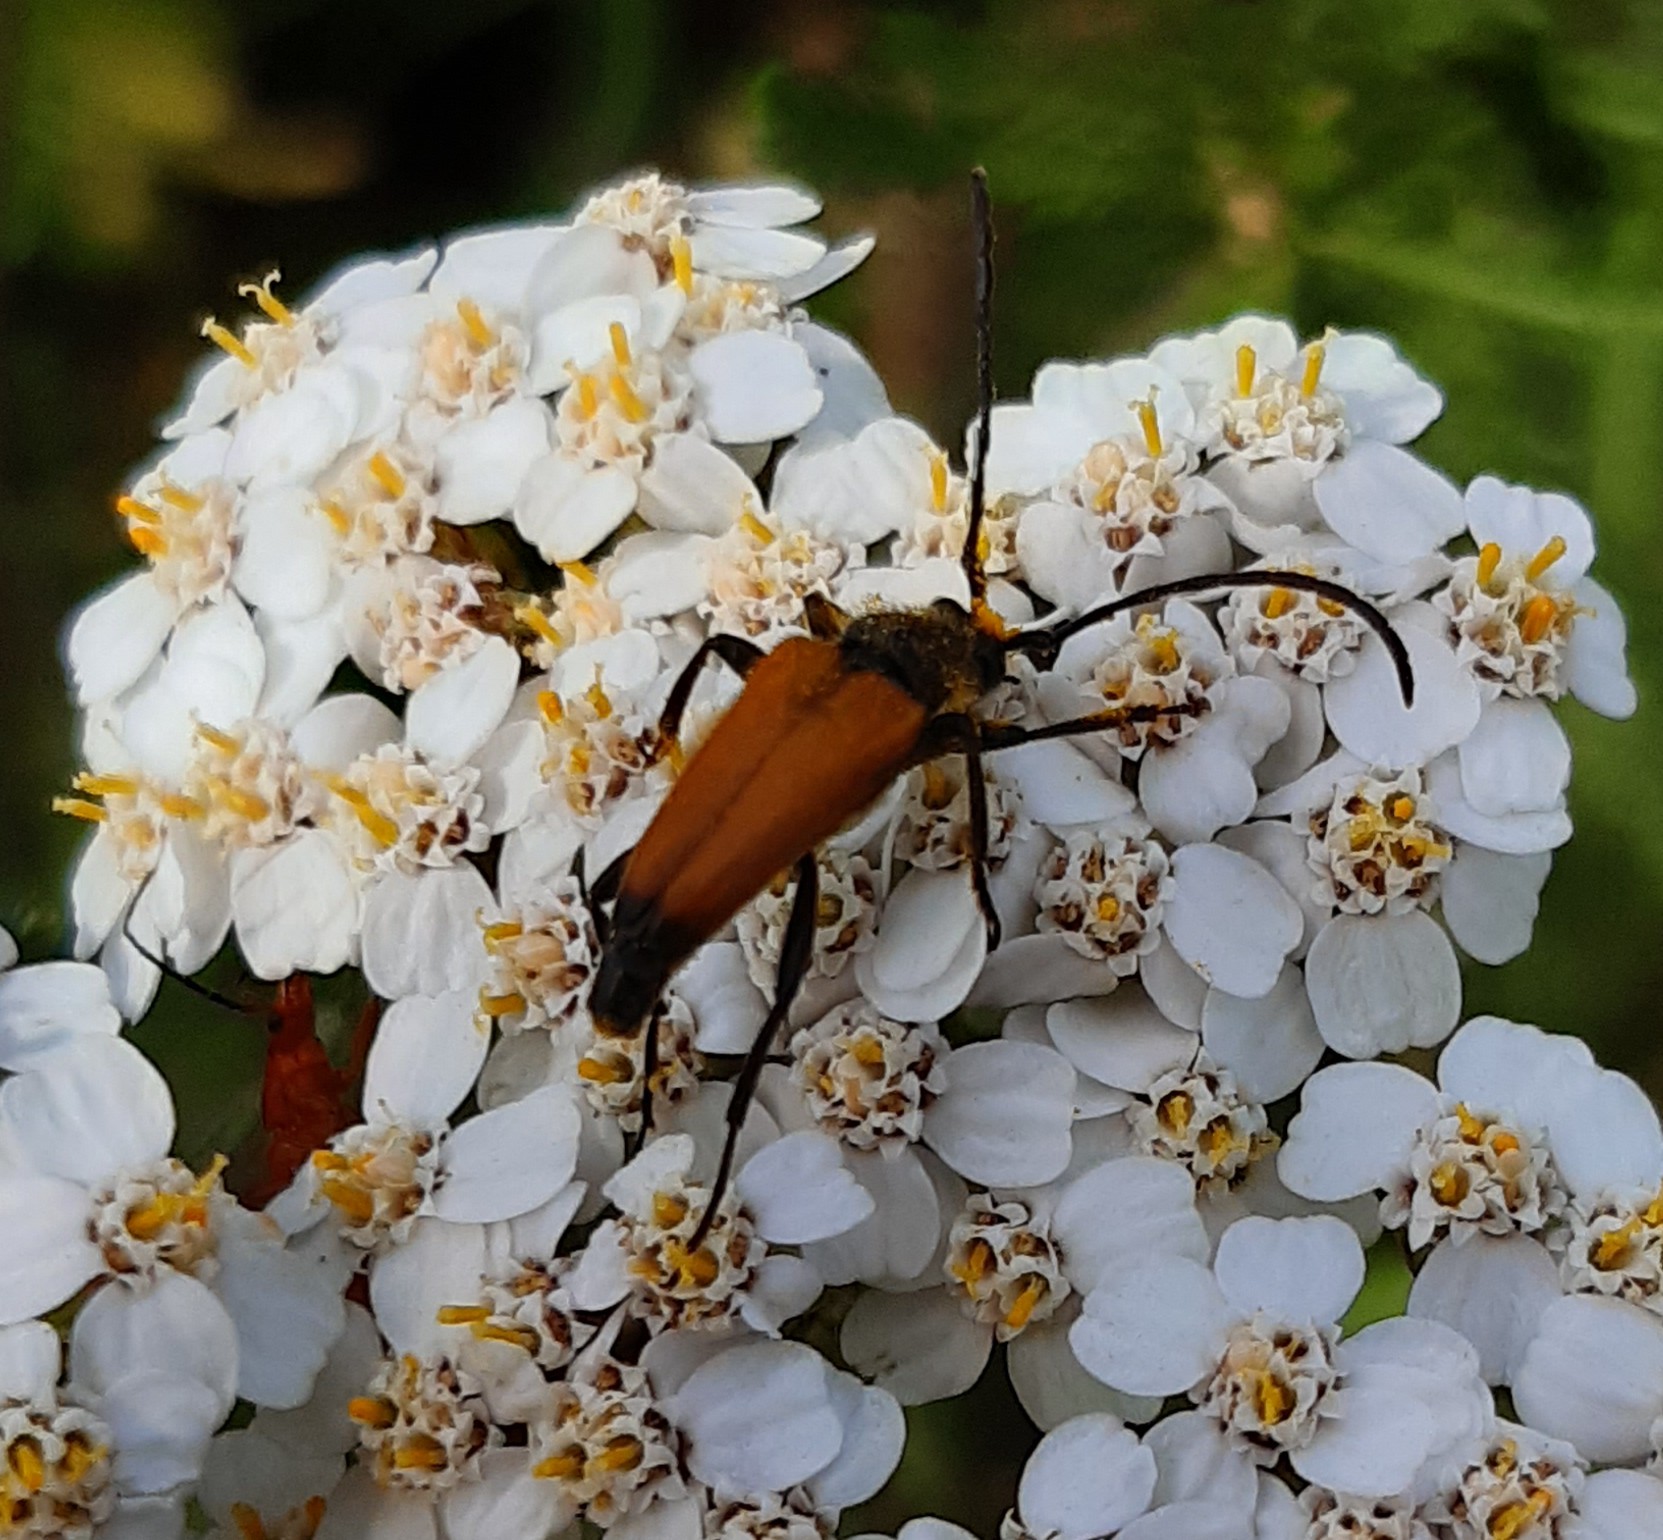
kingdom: Animalia
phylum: Arthropoda
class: Insecta
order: Coleoptera
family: Cerambycidae
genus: Paracorymbia
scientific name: Paracorymbia fulva
